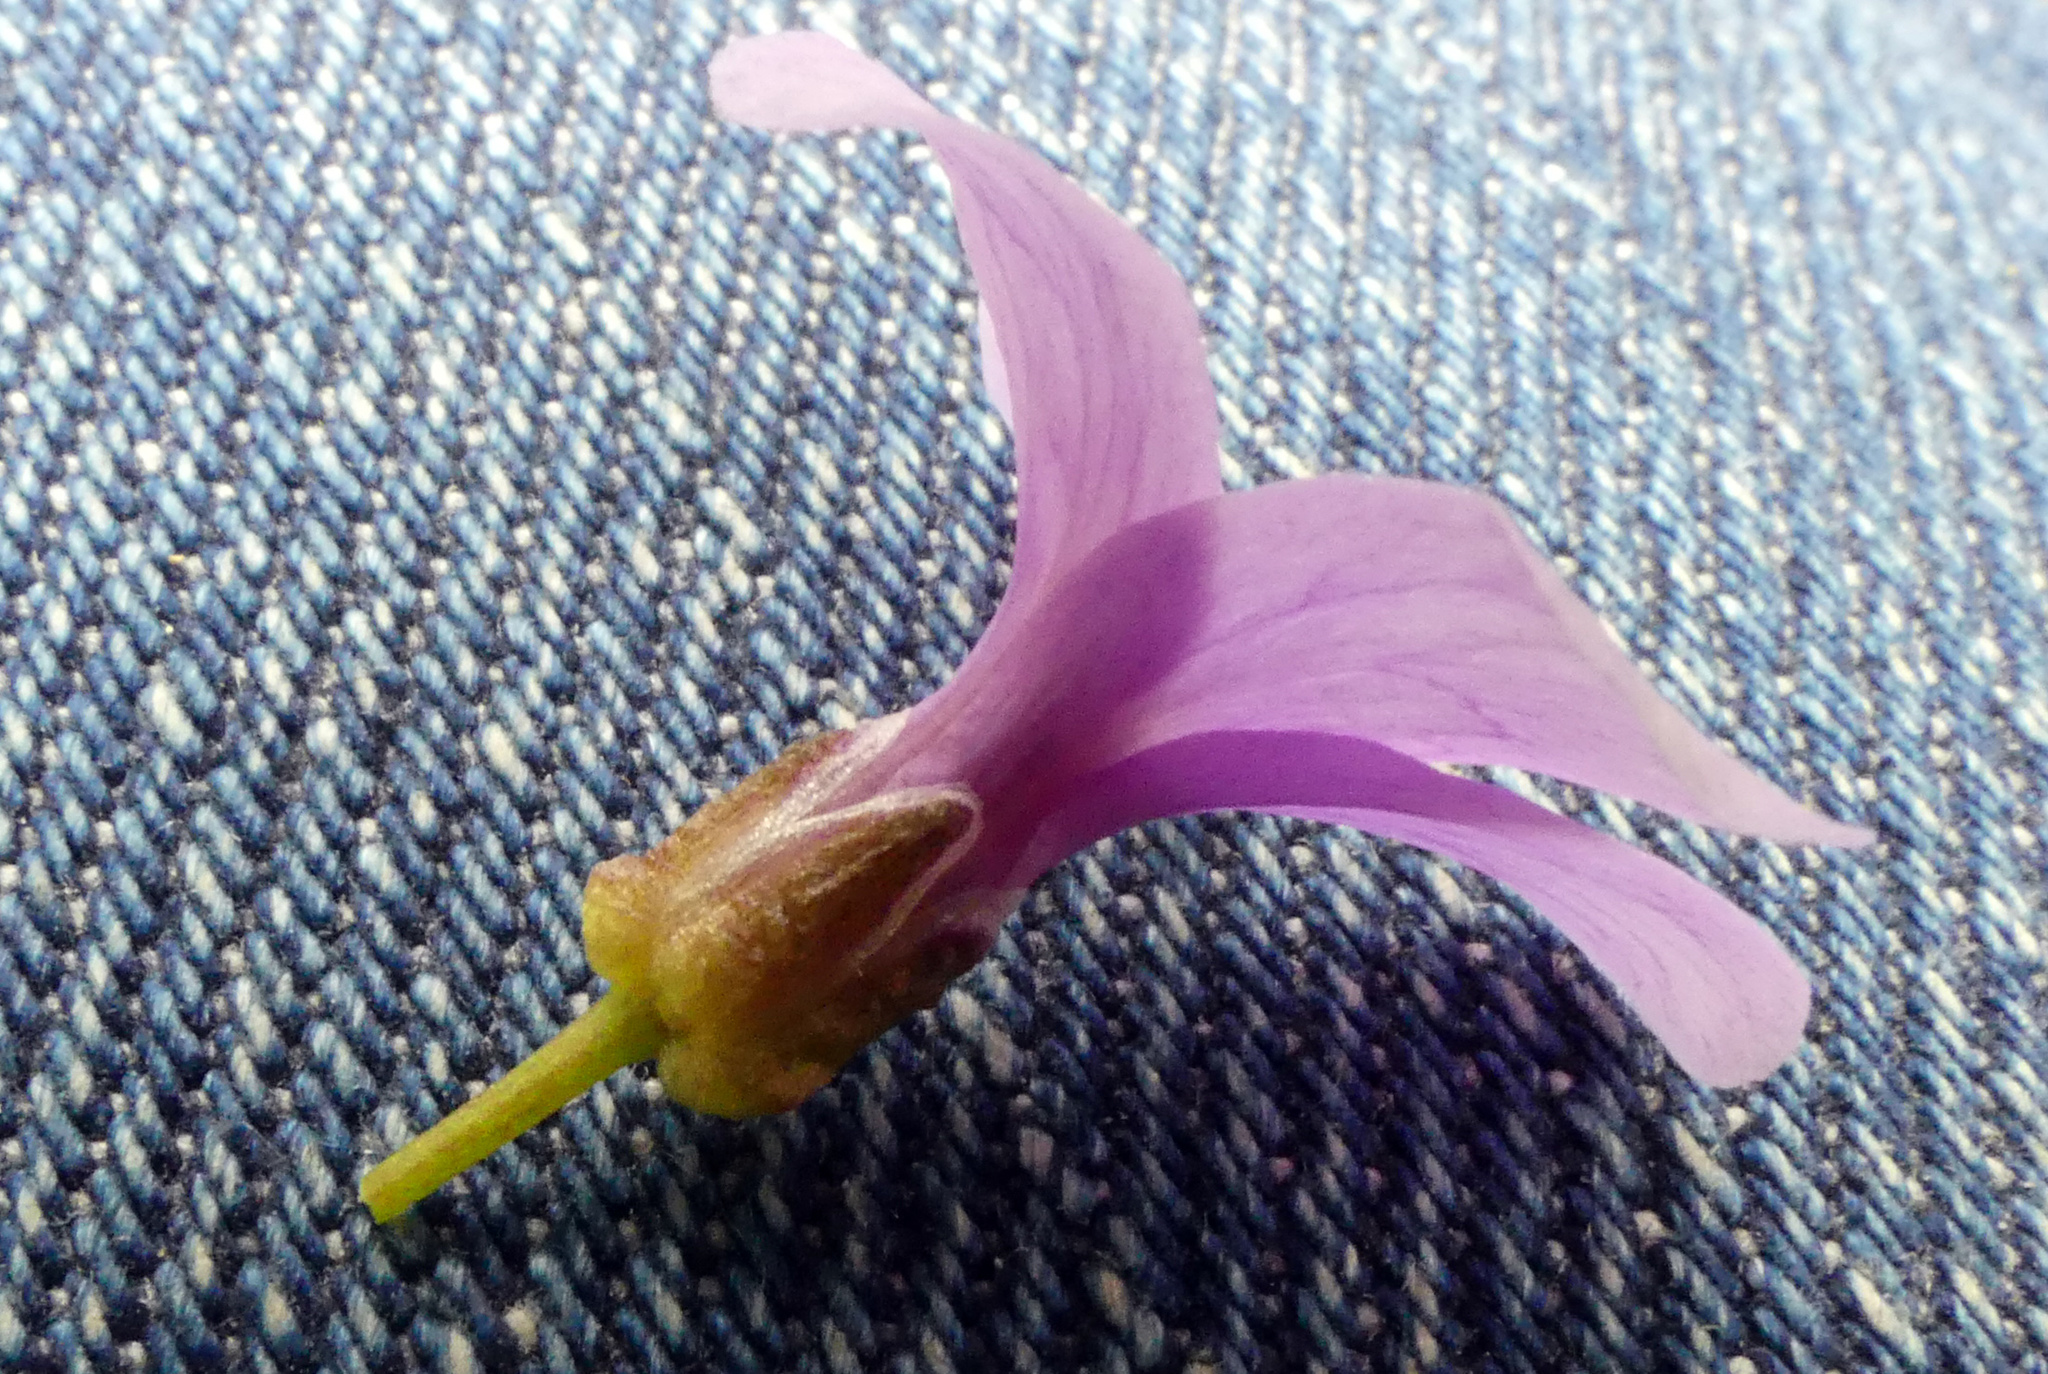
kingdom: Plantae
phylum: Tracheophyta
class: Magnoliopsida
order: Brassicales
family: Brassicaceae
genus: Cardamine
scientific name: Cardamine bulbifera
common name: Coralroot bittercress
